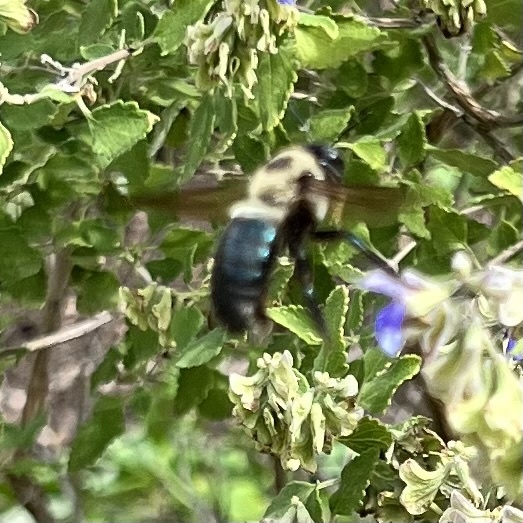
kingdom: Animalia
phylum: Arthropoda
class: Insecta
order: Hymenoptera
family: Apidae
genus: Xylocopa
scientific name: Xylocopa virginica
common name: Carpenter bee
